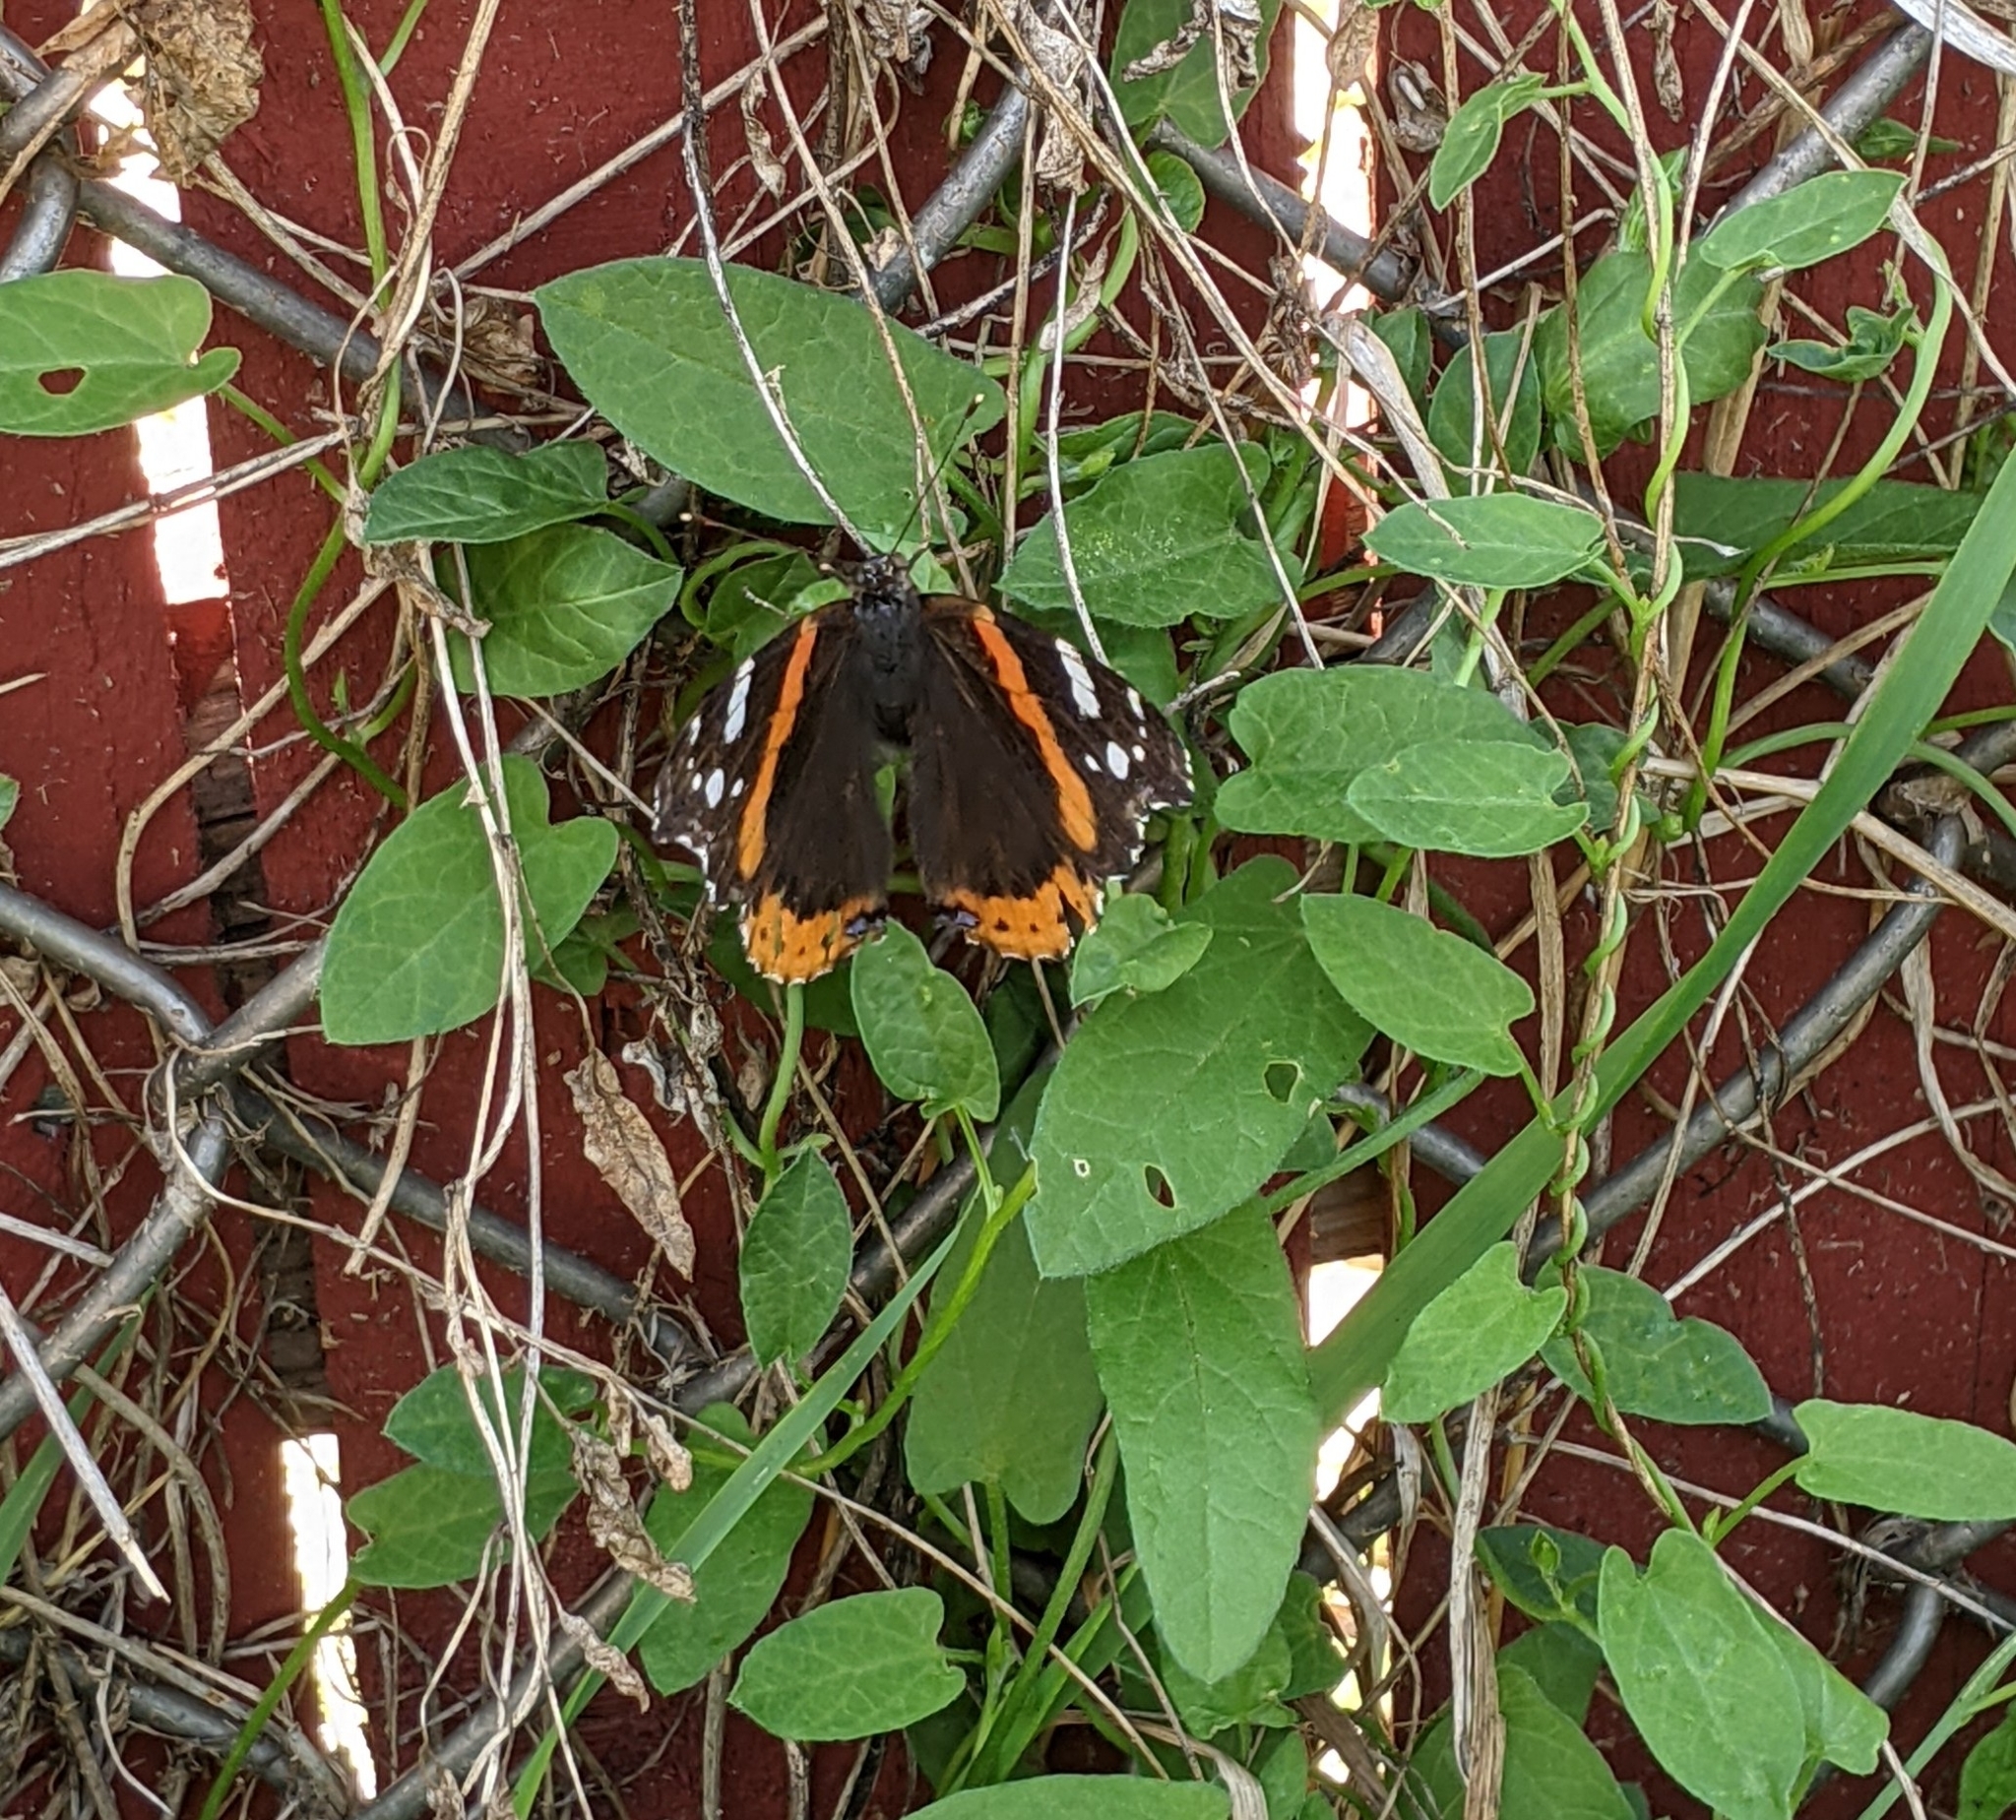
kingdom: Animalia
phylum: Arthropoda
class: Insecta
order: Lepidoptera
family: Nymphalidae
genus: Vanessa
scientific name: Vanessa atalanta
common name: Red admiral
